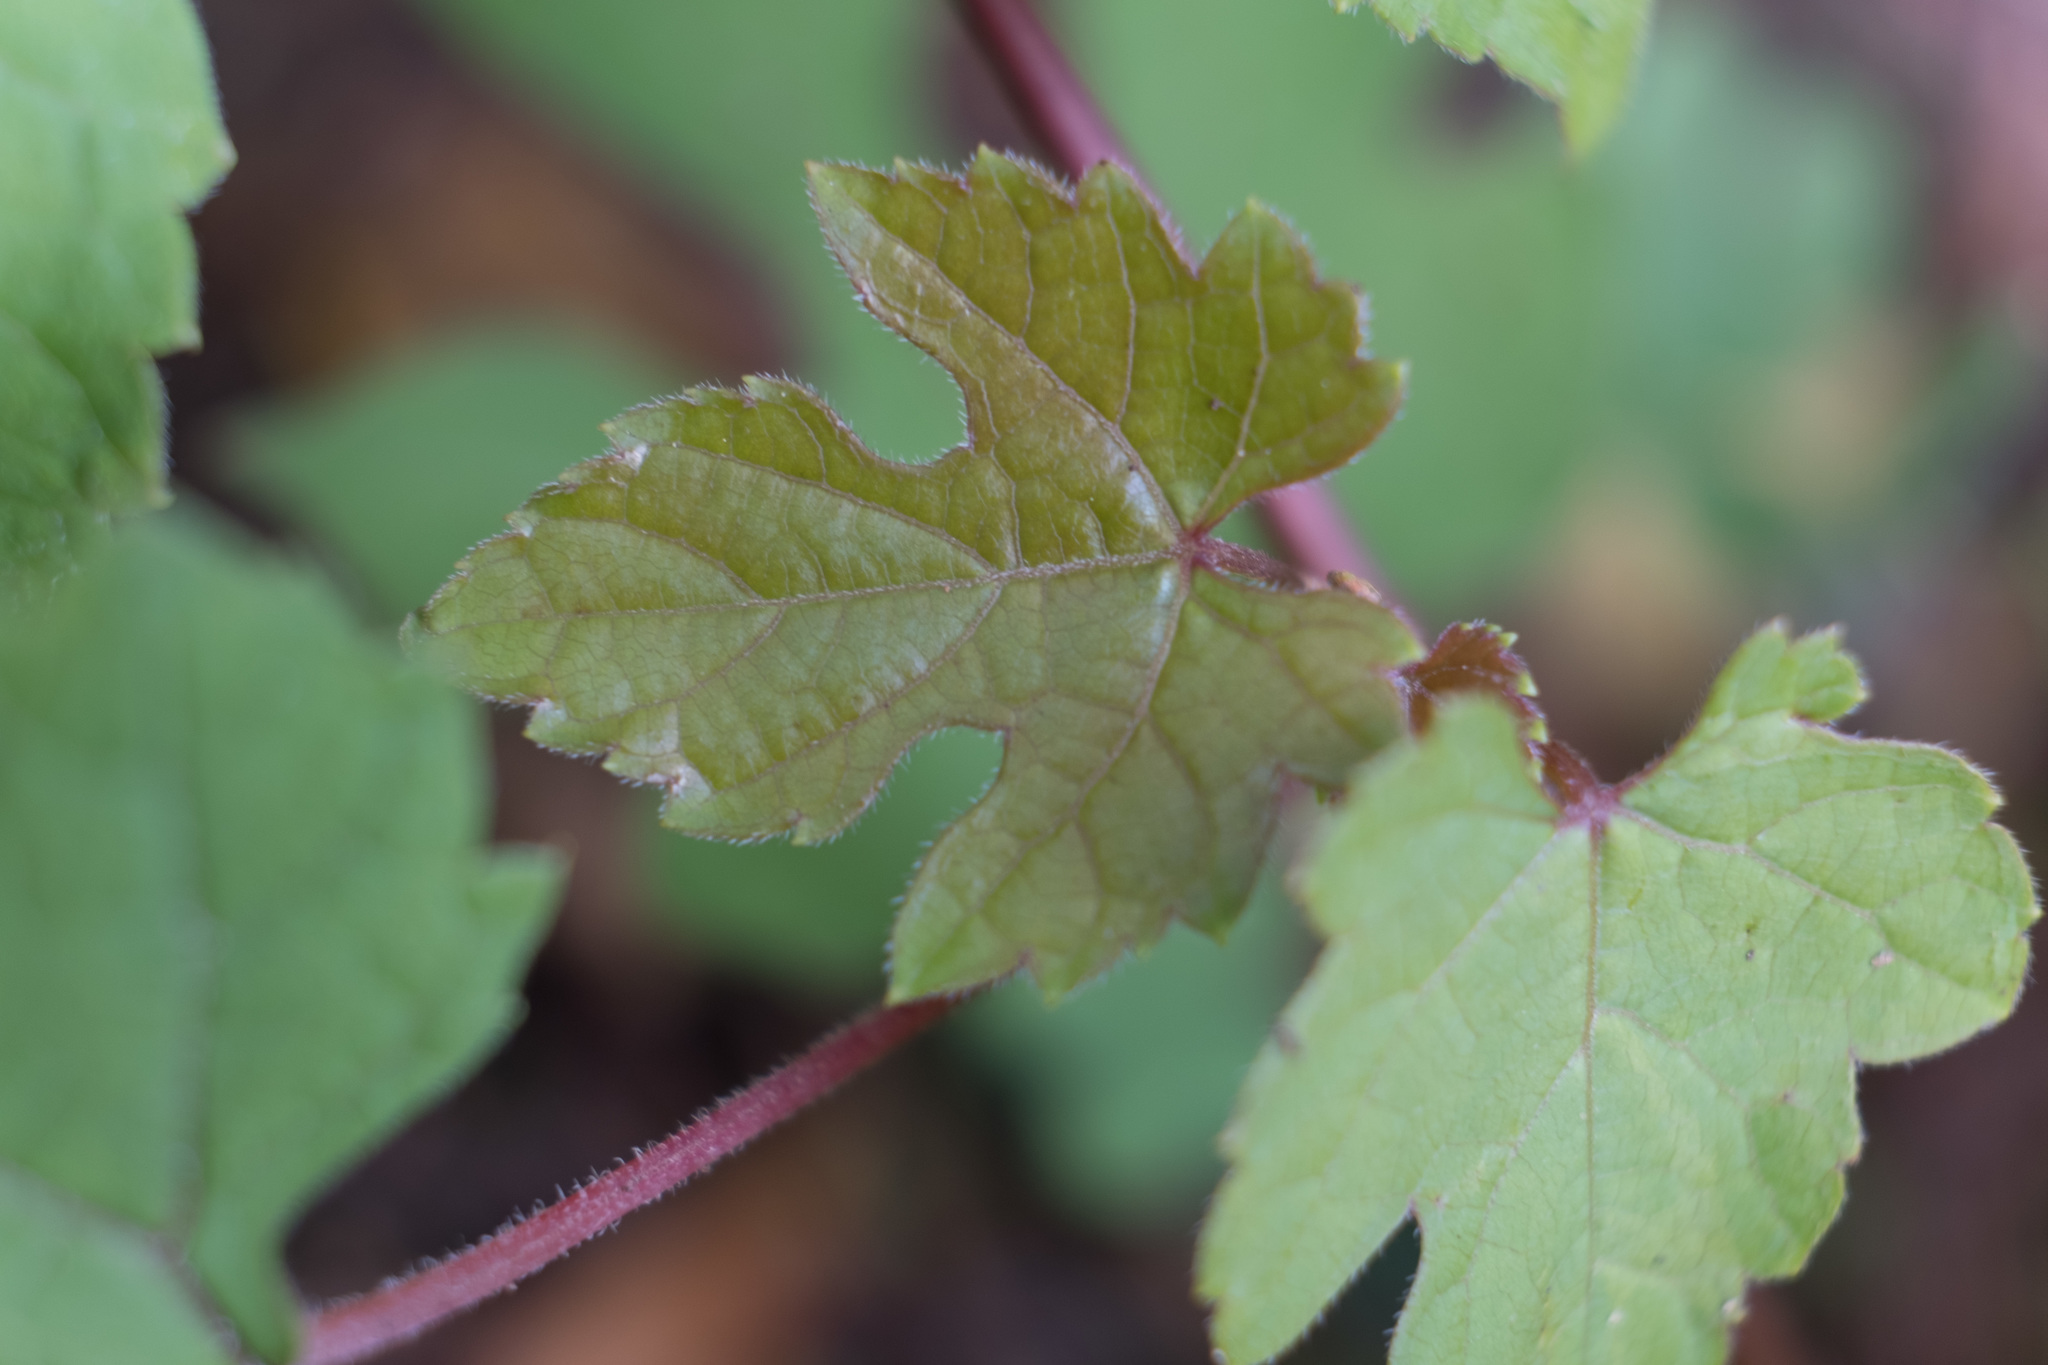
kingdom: Plantae
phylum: Tracheophyta
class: Magnoliopsida
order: Vitales
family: Vitaceae
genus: Ampelopsis
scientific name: Ampelopsis glandulosa
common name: Amur peppervine
